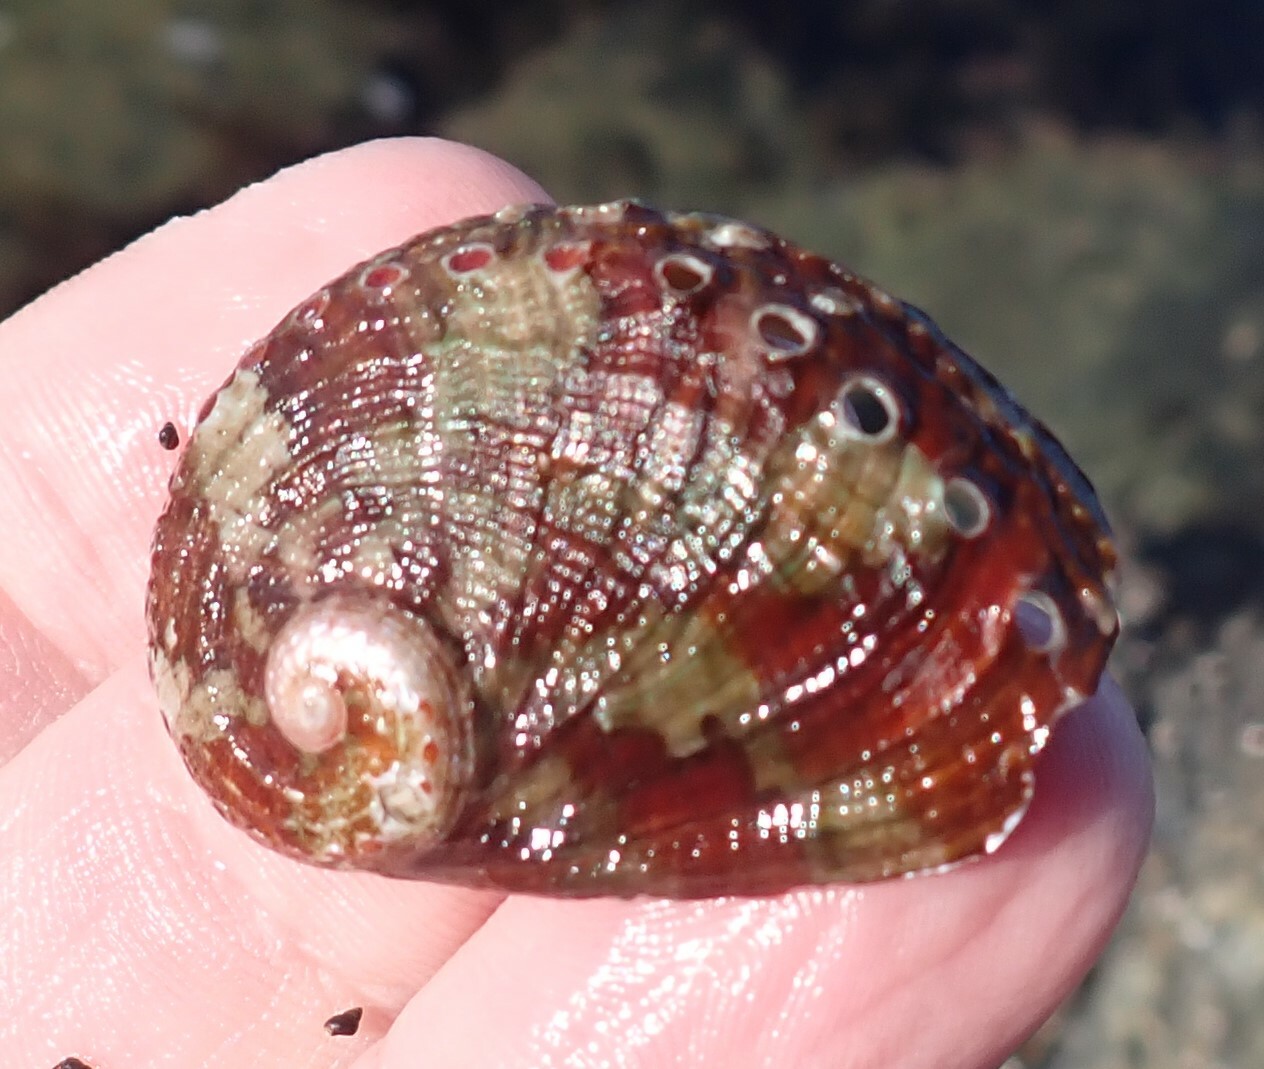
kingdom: Animalia
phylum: Mollusca
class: Gastropoda
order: Lepetellida
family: Haliotidae
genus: Haliotis
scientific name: Haliotis coccoradiata
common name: Reddish-rayed abalone
